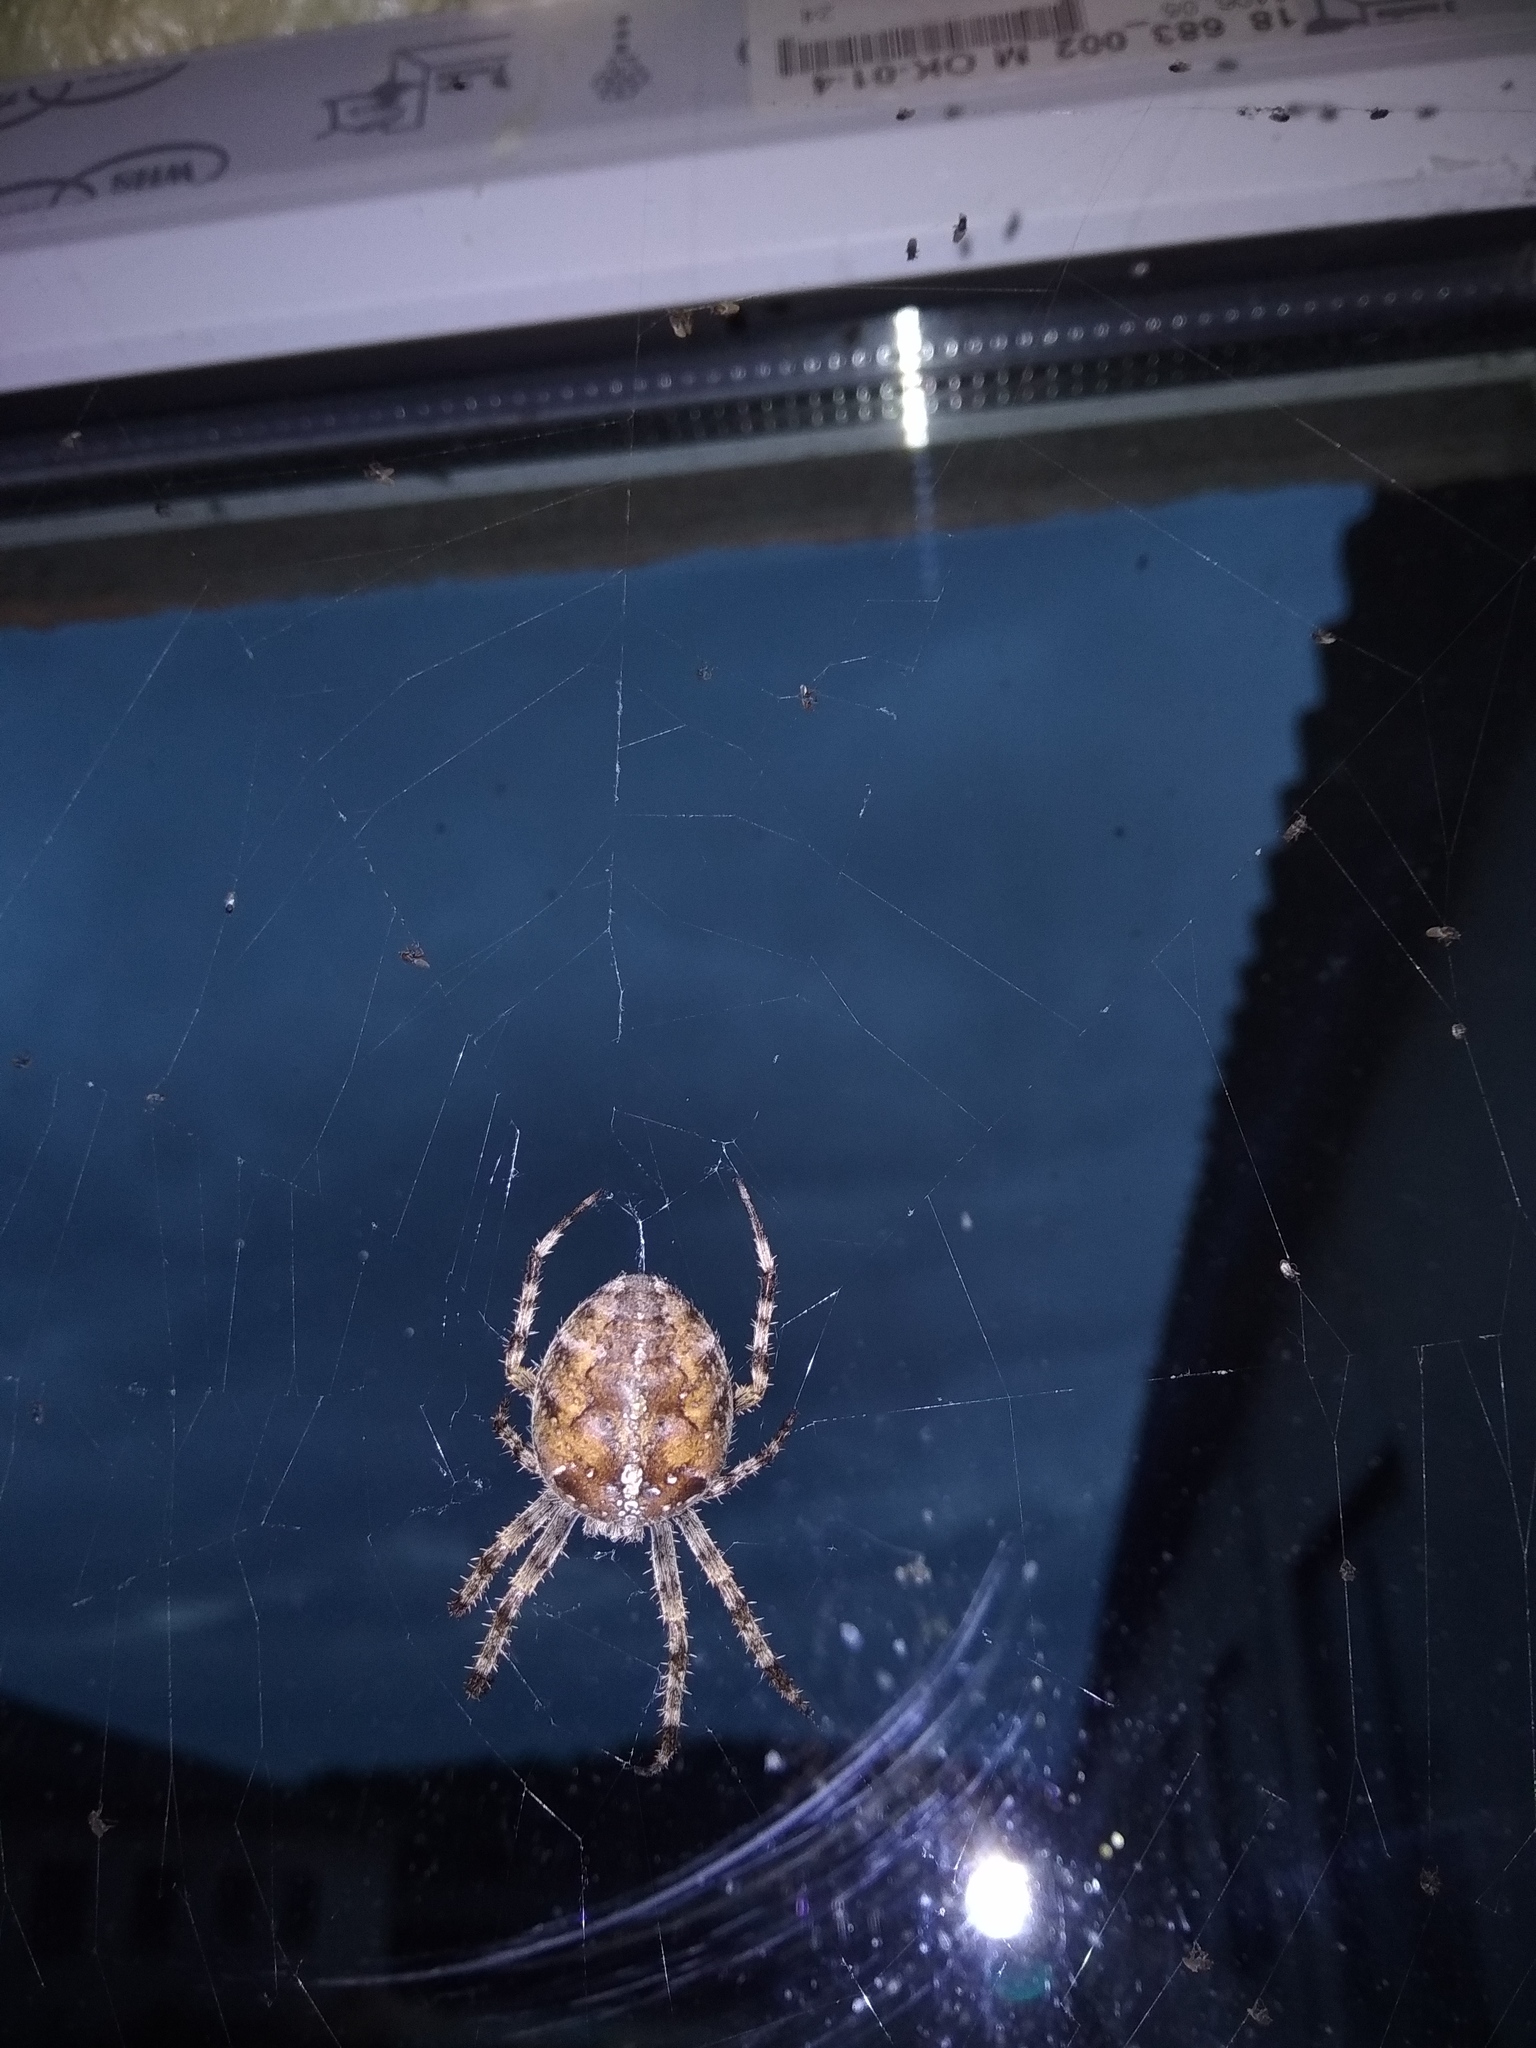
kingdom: Animalia
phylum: Arthropoda
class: Arachnida
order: Araneae
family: Araneidae
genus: Araneus
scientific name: Araneus diadematus
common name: Cross orbweaver
